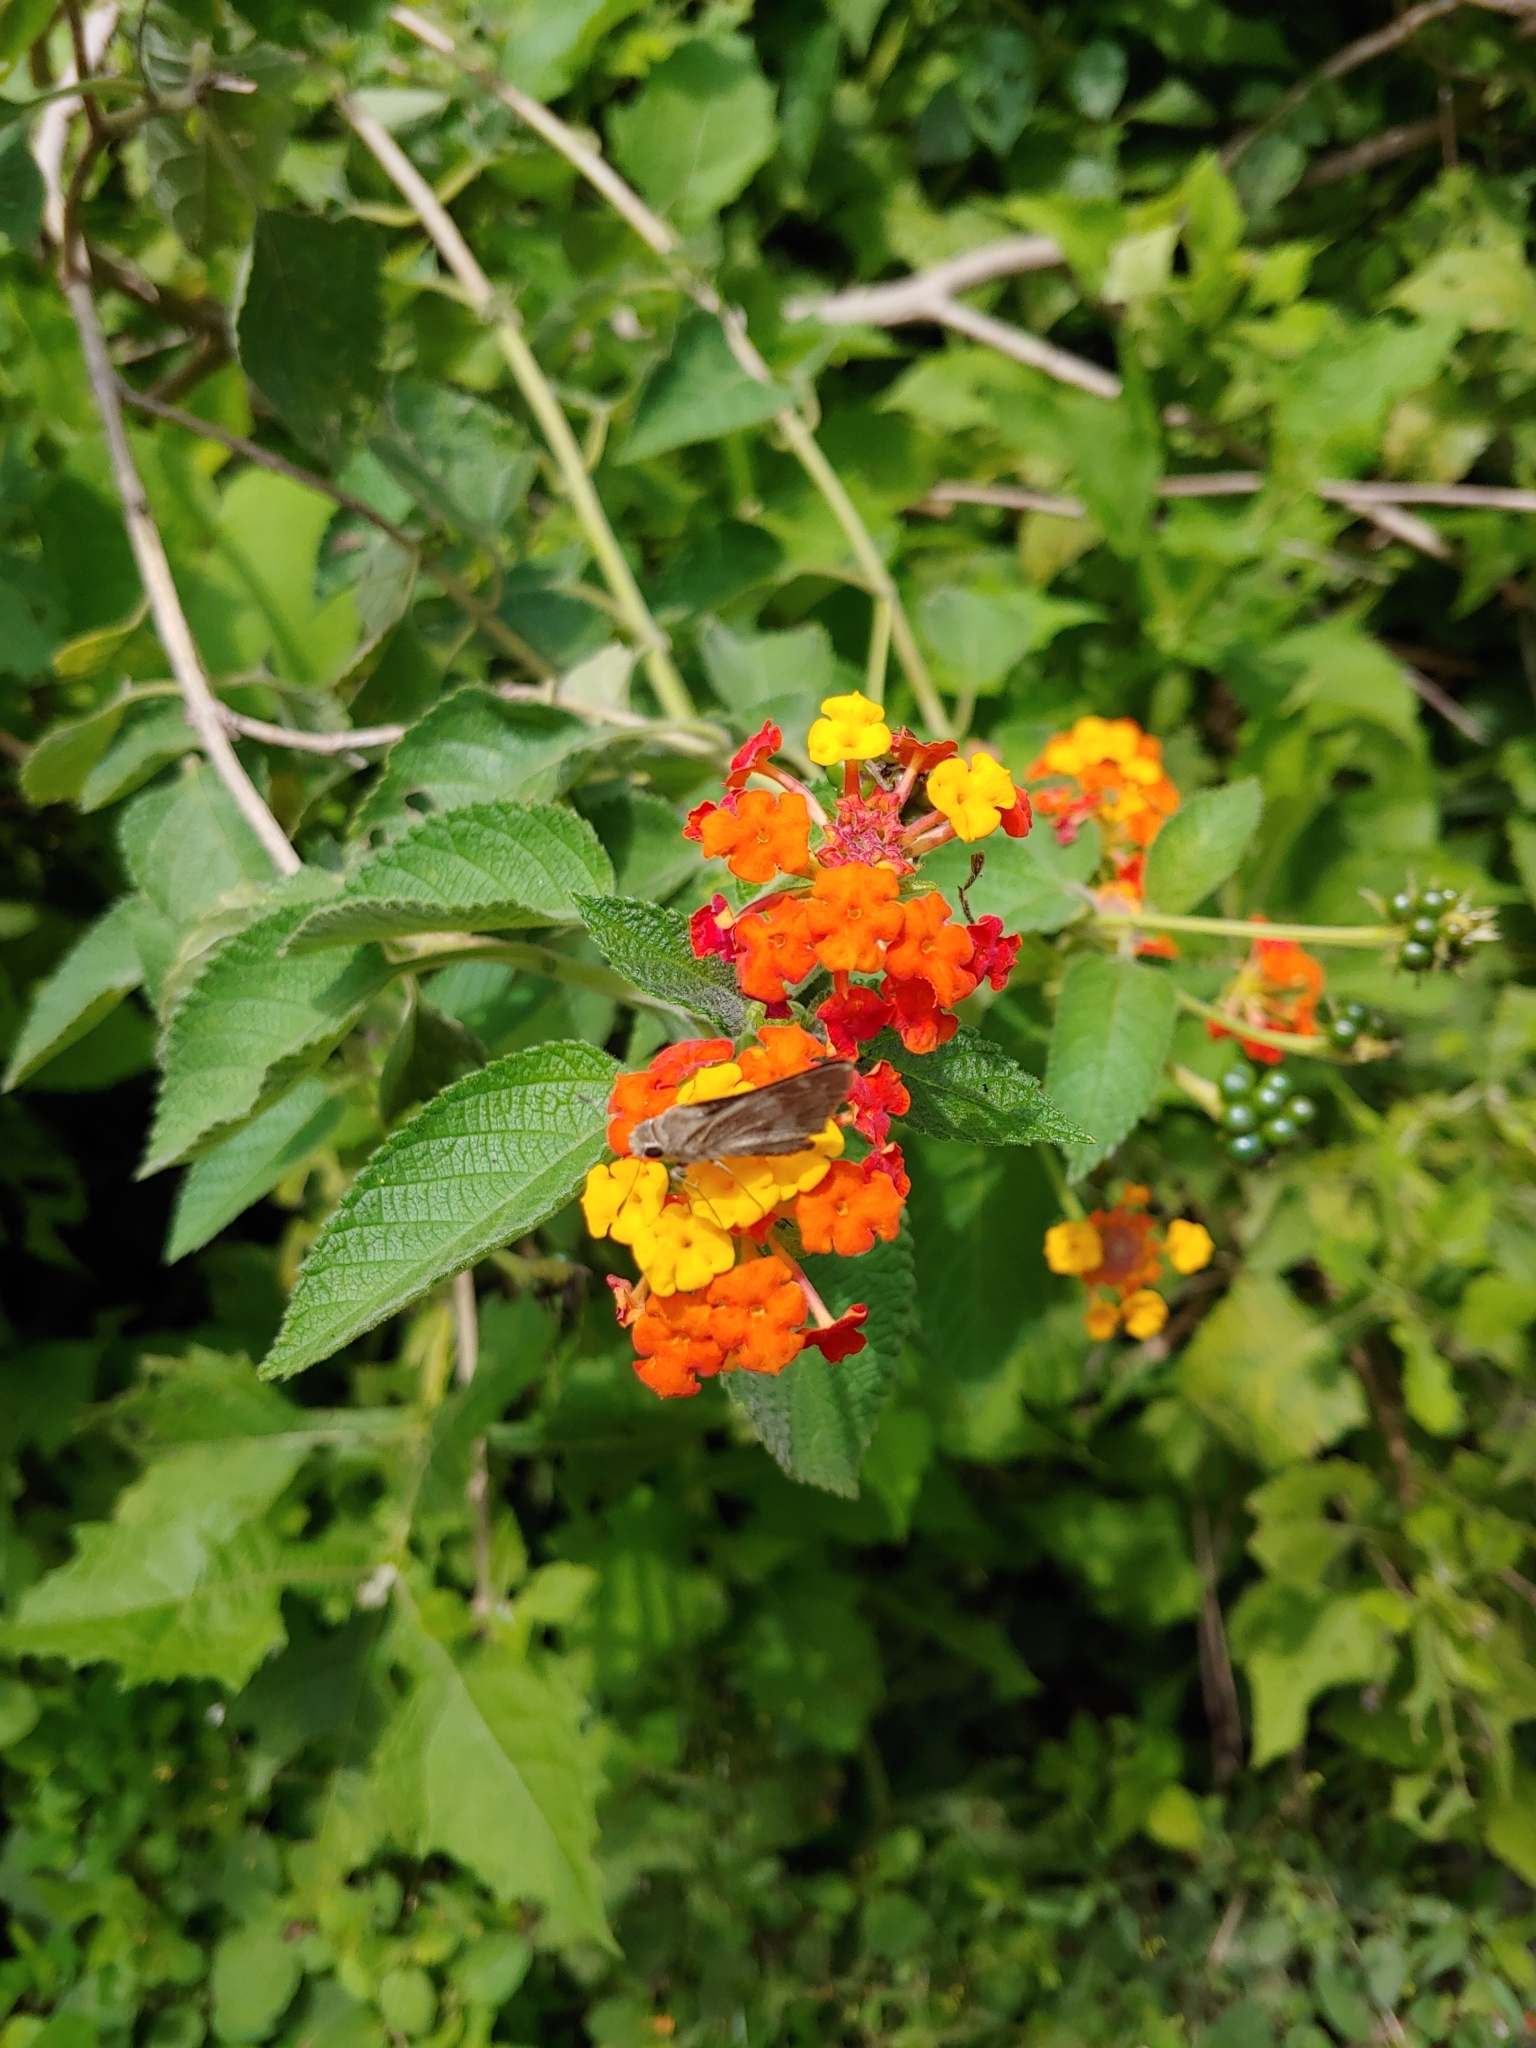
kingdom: Plantae
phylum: Tracheophyta
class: Magnoliopsida
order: Lamiales
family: Verbenaceae
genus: Lantana
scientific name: Lantana camara
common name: Lantana
